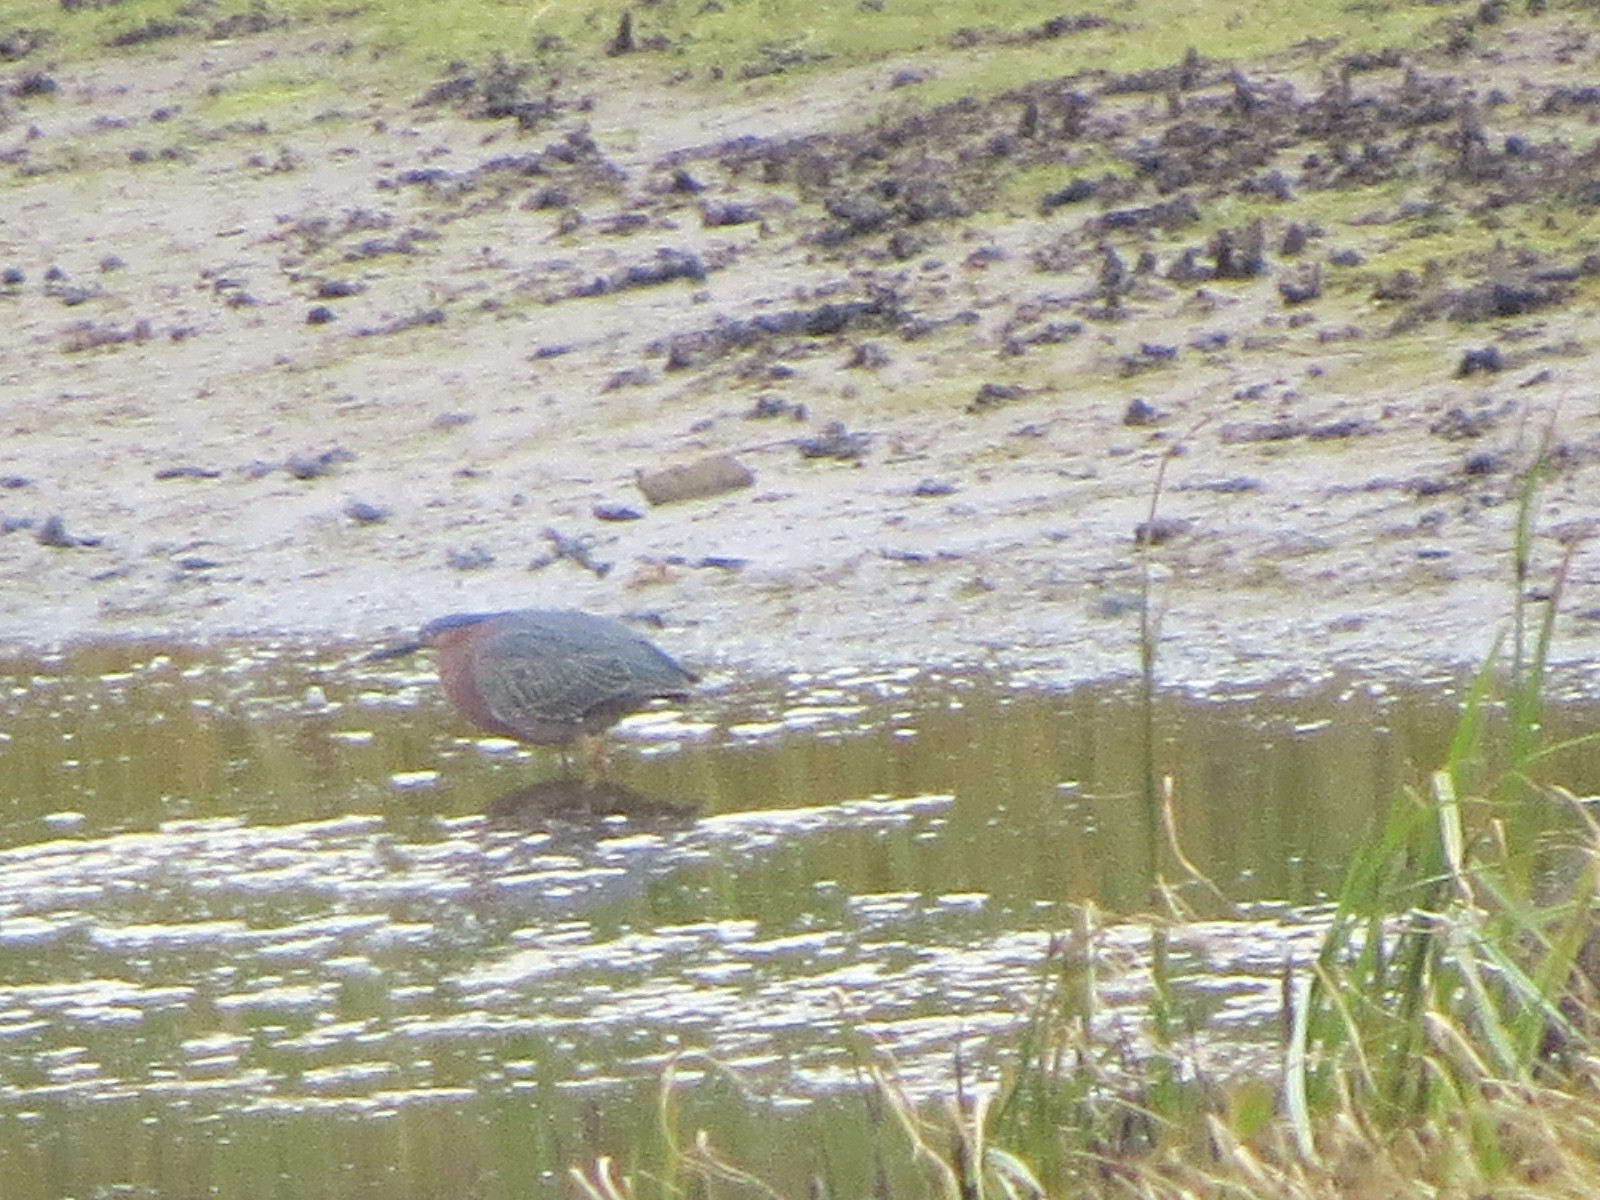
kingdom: Animalia
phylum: Chordata
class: Aves
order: Pelecaniformes
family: Ardeidae
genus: Butorides
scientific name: Butorides virescens
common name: Green heron
